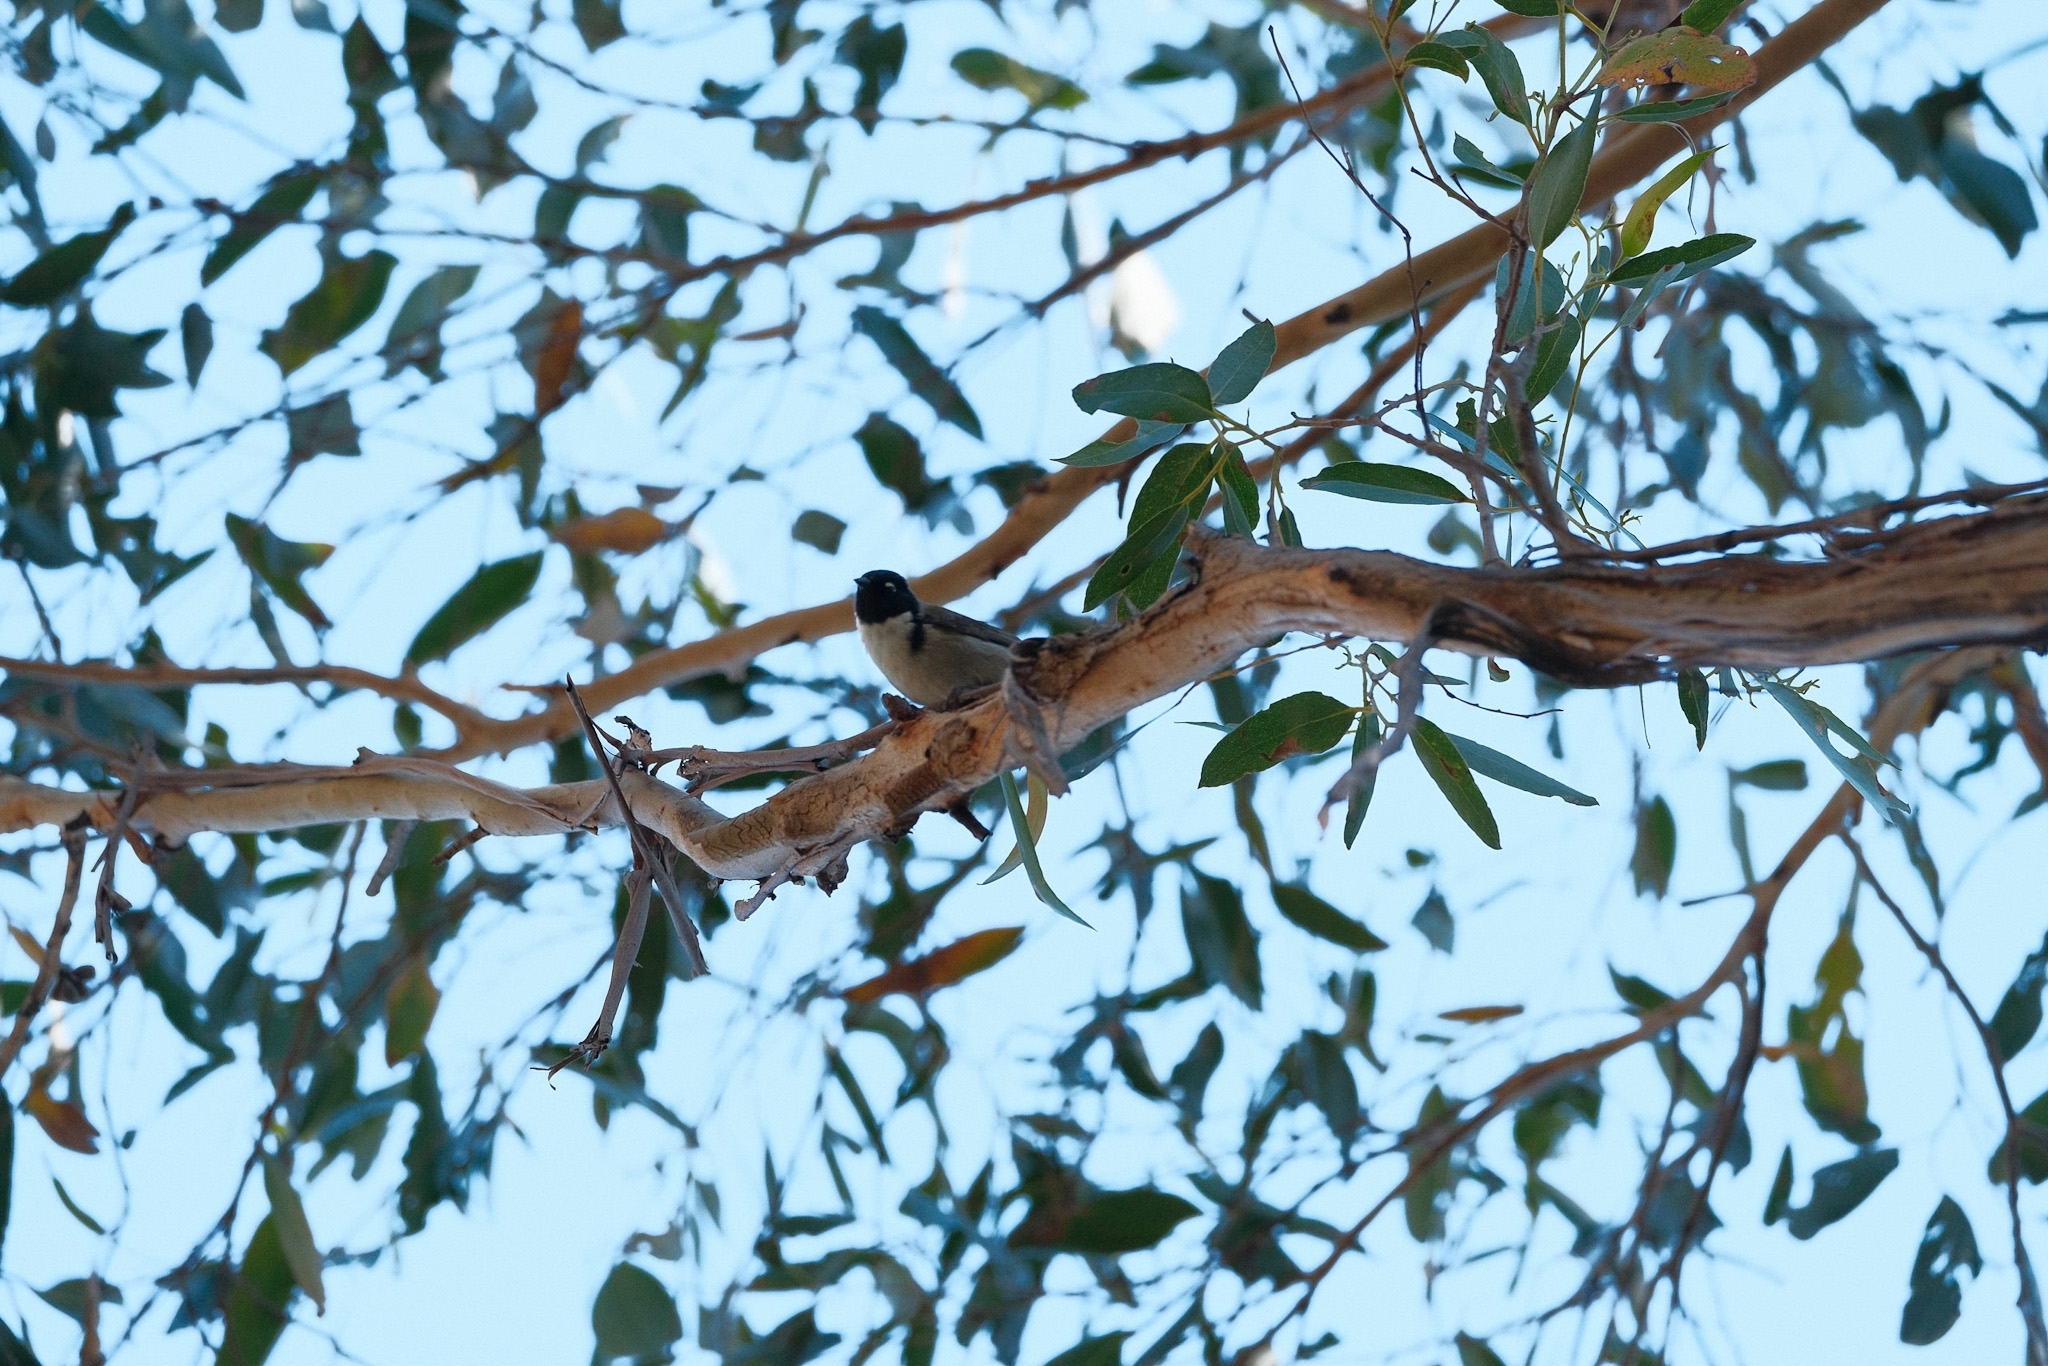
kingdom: Animalia
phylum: Chordata
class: Aves
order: Passeriformes
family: Meliphagidae
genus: Melithreptus
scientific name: Melithreptus affinis
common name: Black-headed honeyeater
